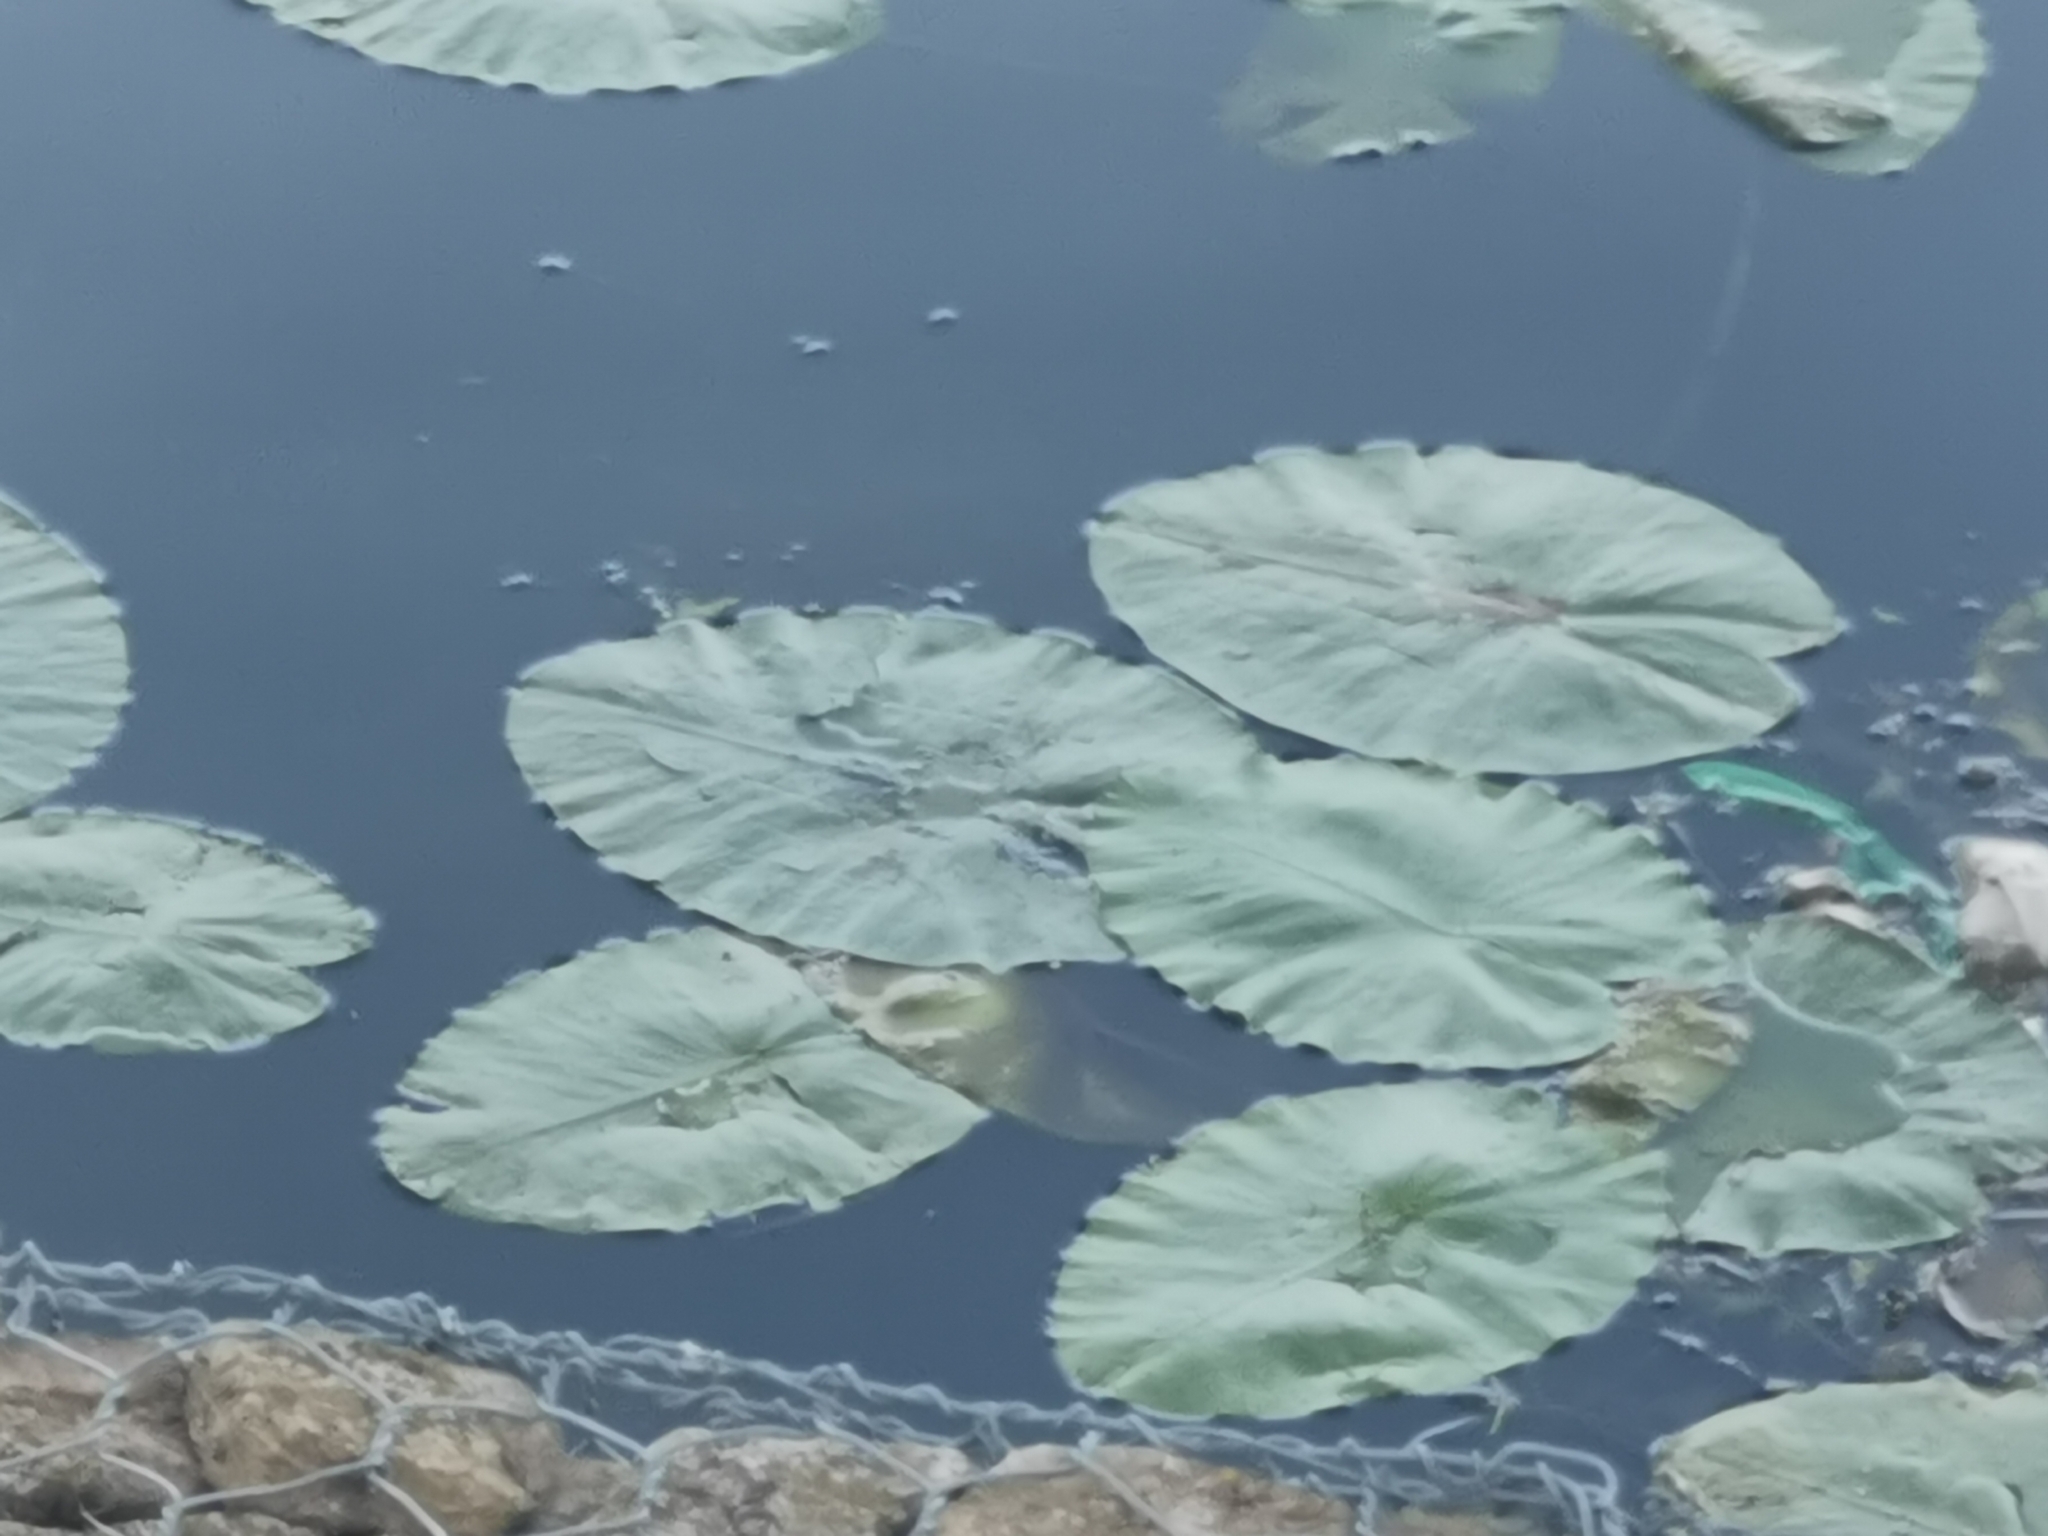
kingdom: Plantae
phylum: Tracheophyta
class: Magnoliopsida
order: Nymphaeales
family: Nymphaeaceae
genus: Nuphar
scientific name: Nuphar lutea
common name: Yellow water-lily
